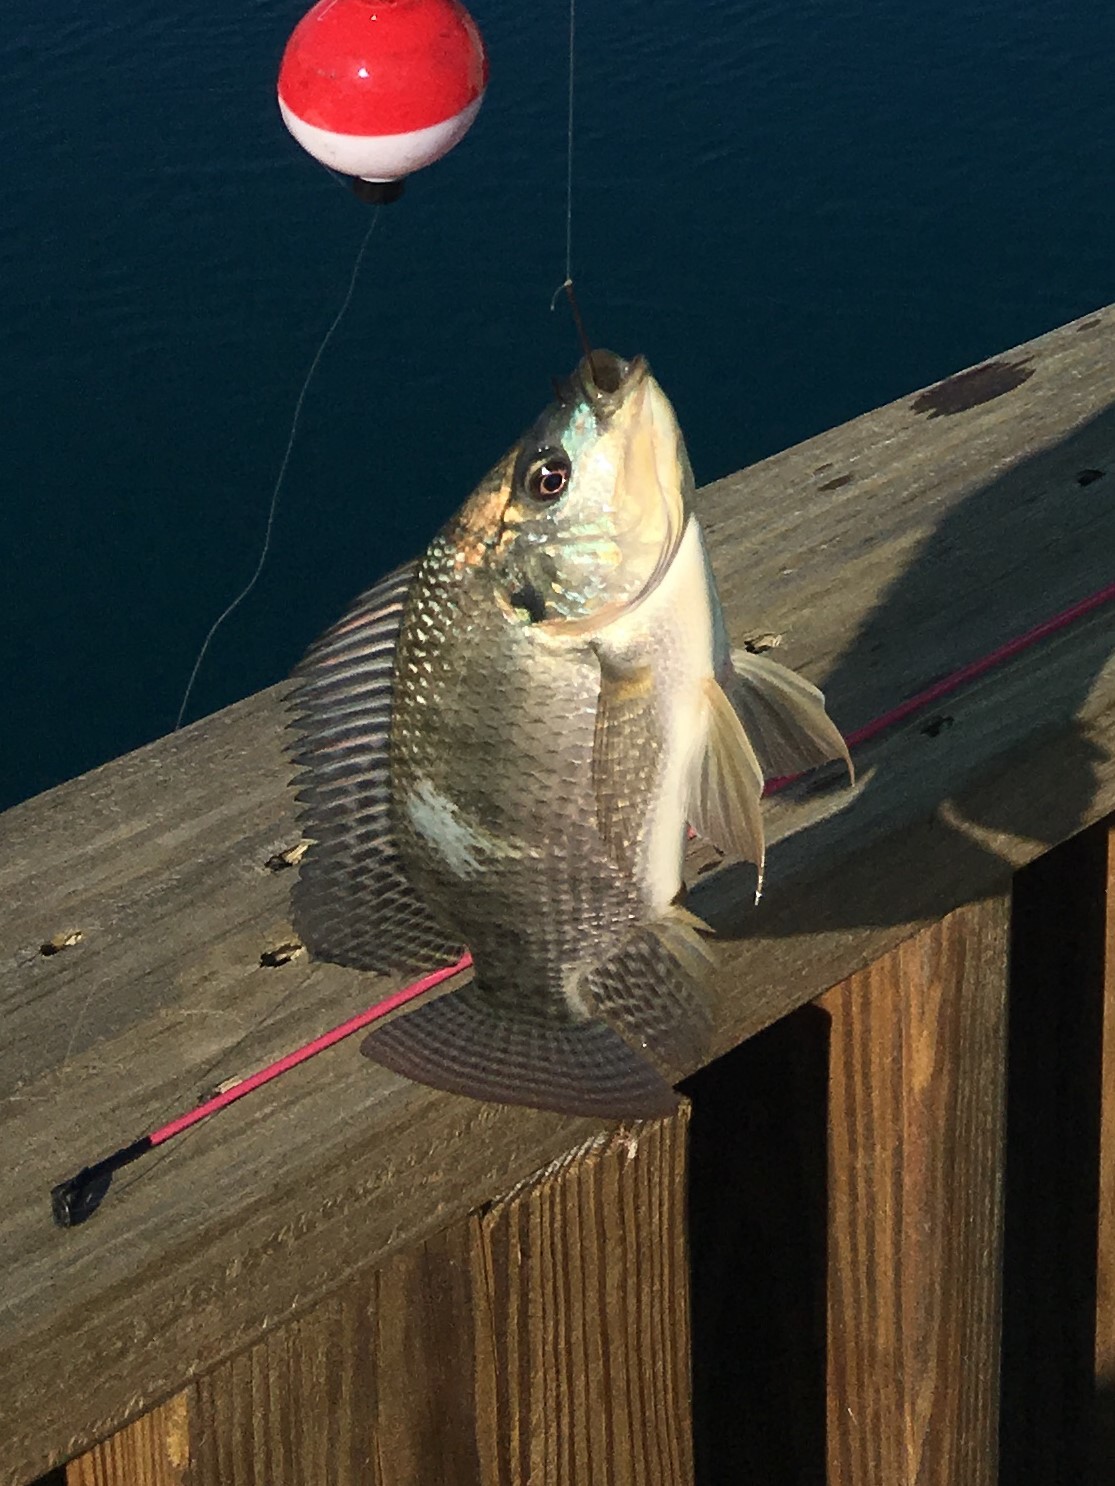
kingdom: Animalia
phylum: Chordata
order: Perciformes
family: Cichlidae
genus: Oreochromis
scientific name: Oreochromis niloticus
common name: Nile tilapia
